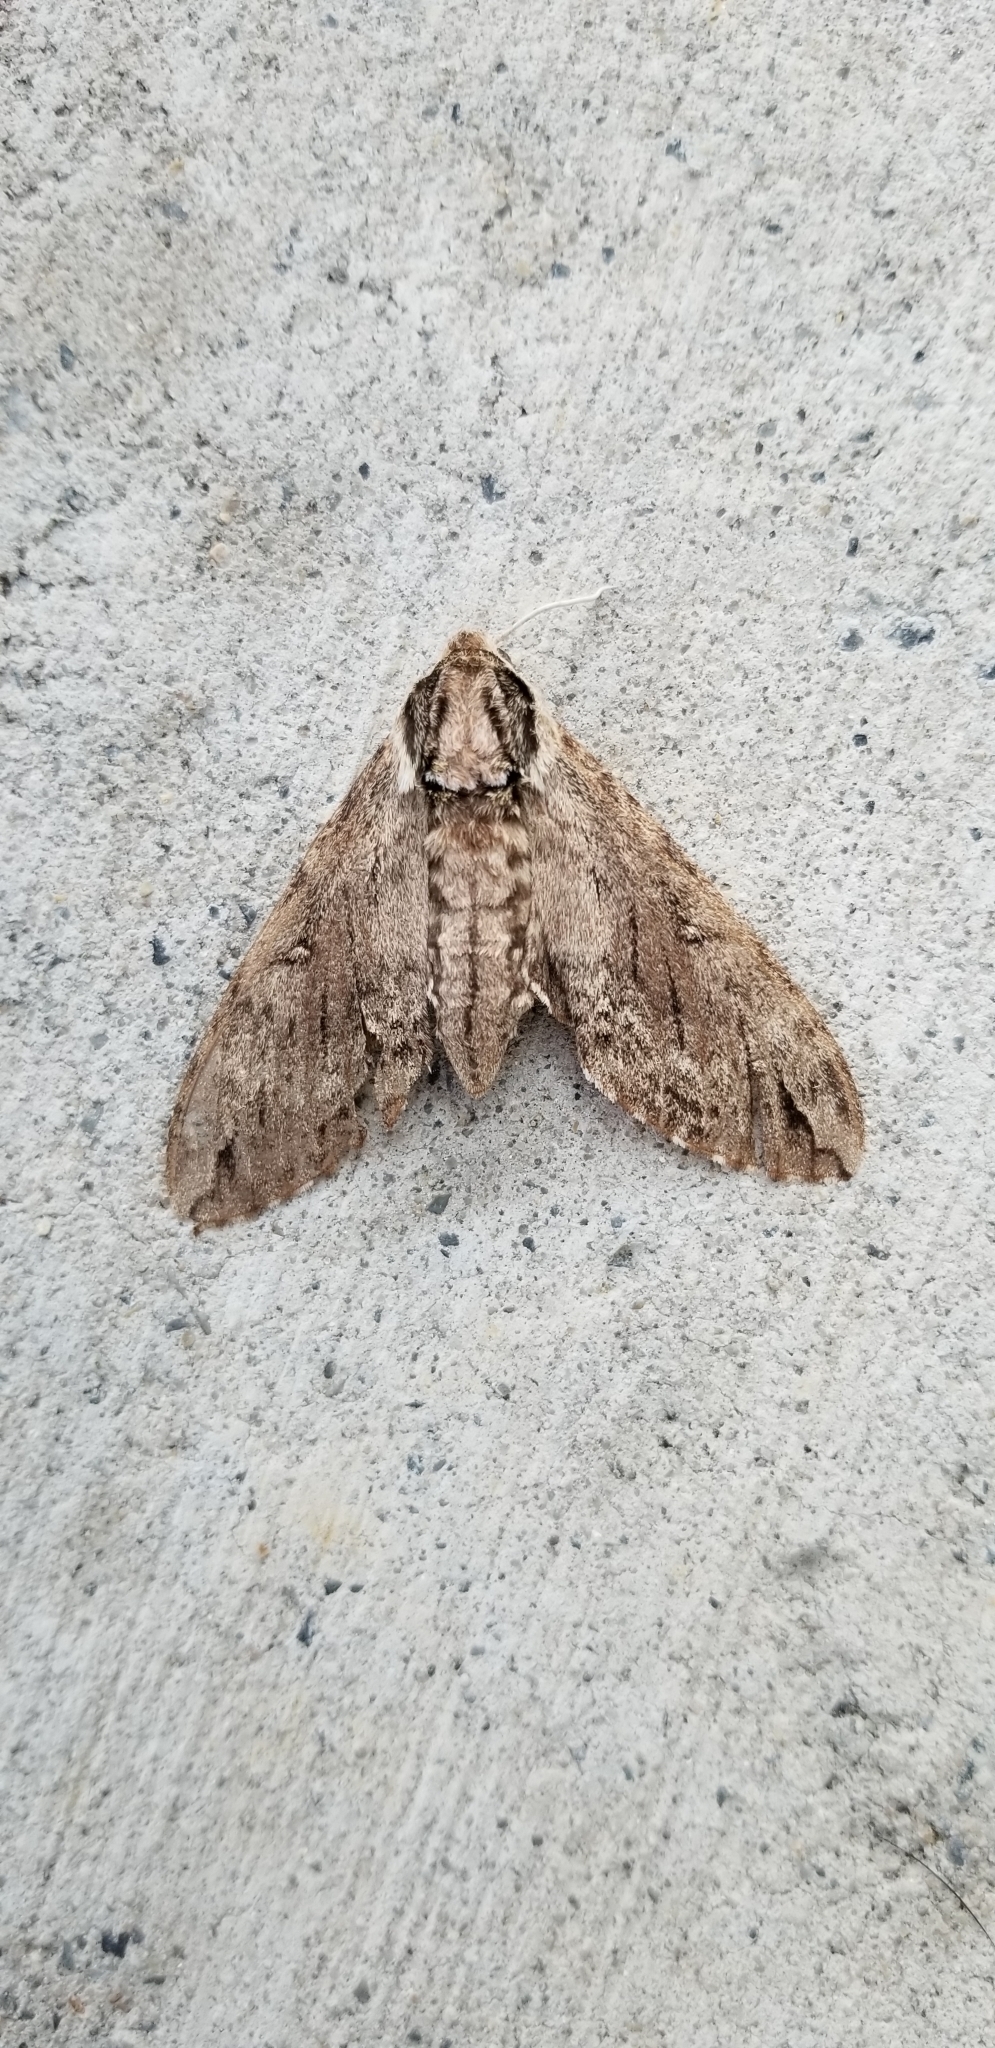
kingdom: Animalia
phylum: Arthropoda
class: Insecta
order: Lepidoptera
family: Sphingidae
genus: Ceratomia
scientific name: Ceratomia catalpae
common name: Catalpa hornworm
